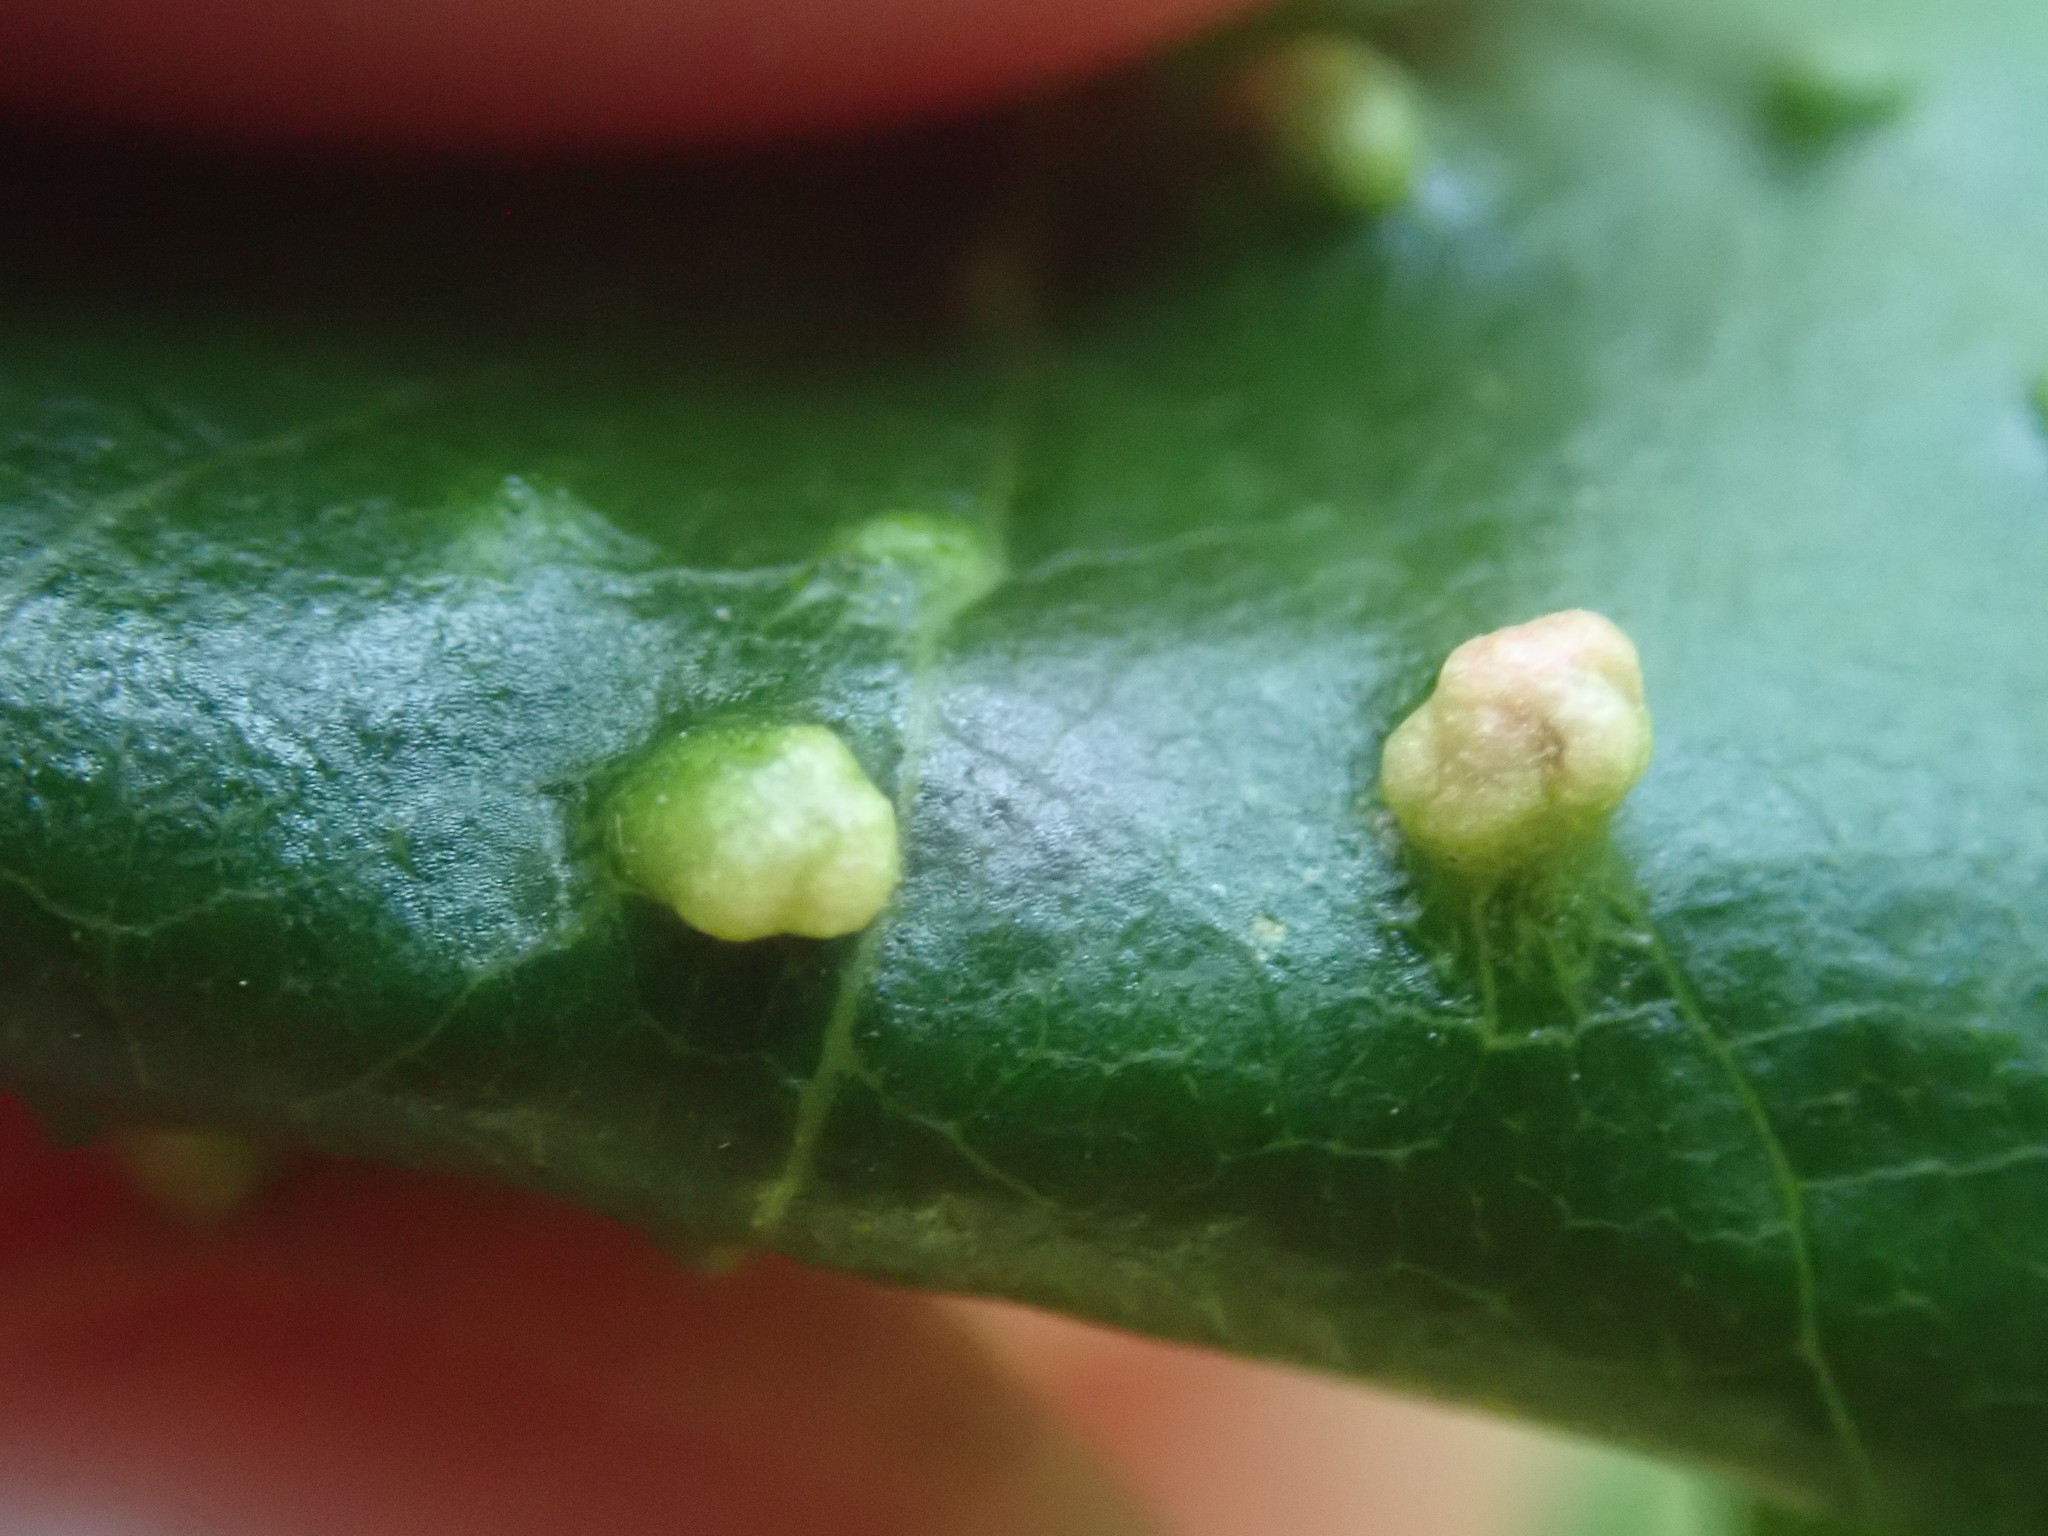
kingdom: Animalia
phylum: Arthropoda
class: Arachnida
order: Trombidiformes
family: Eriophyidae
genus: Aceria
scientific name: Aceria
